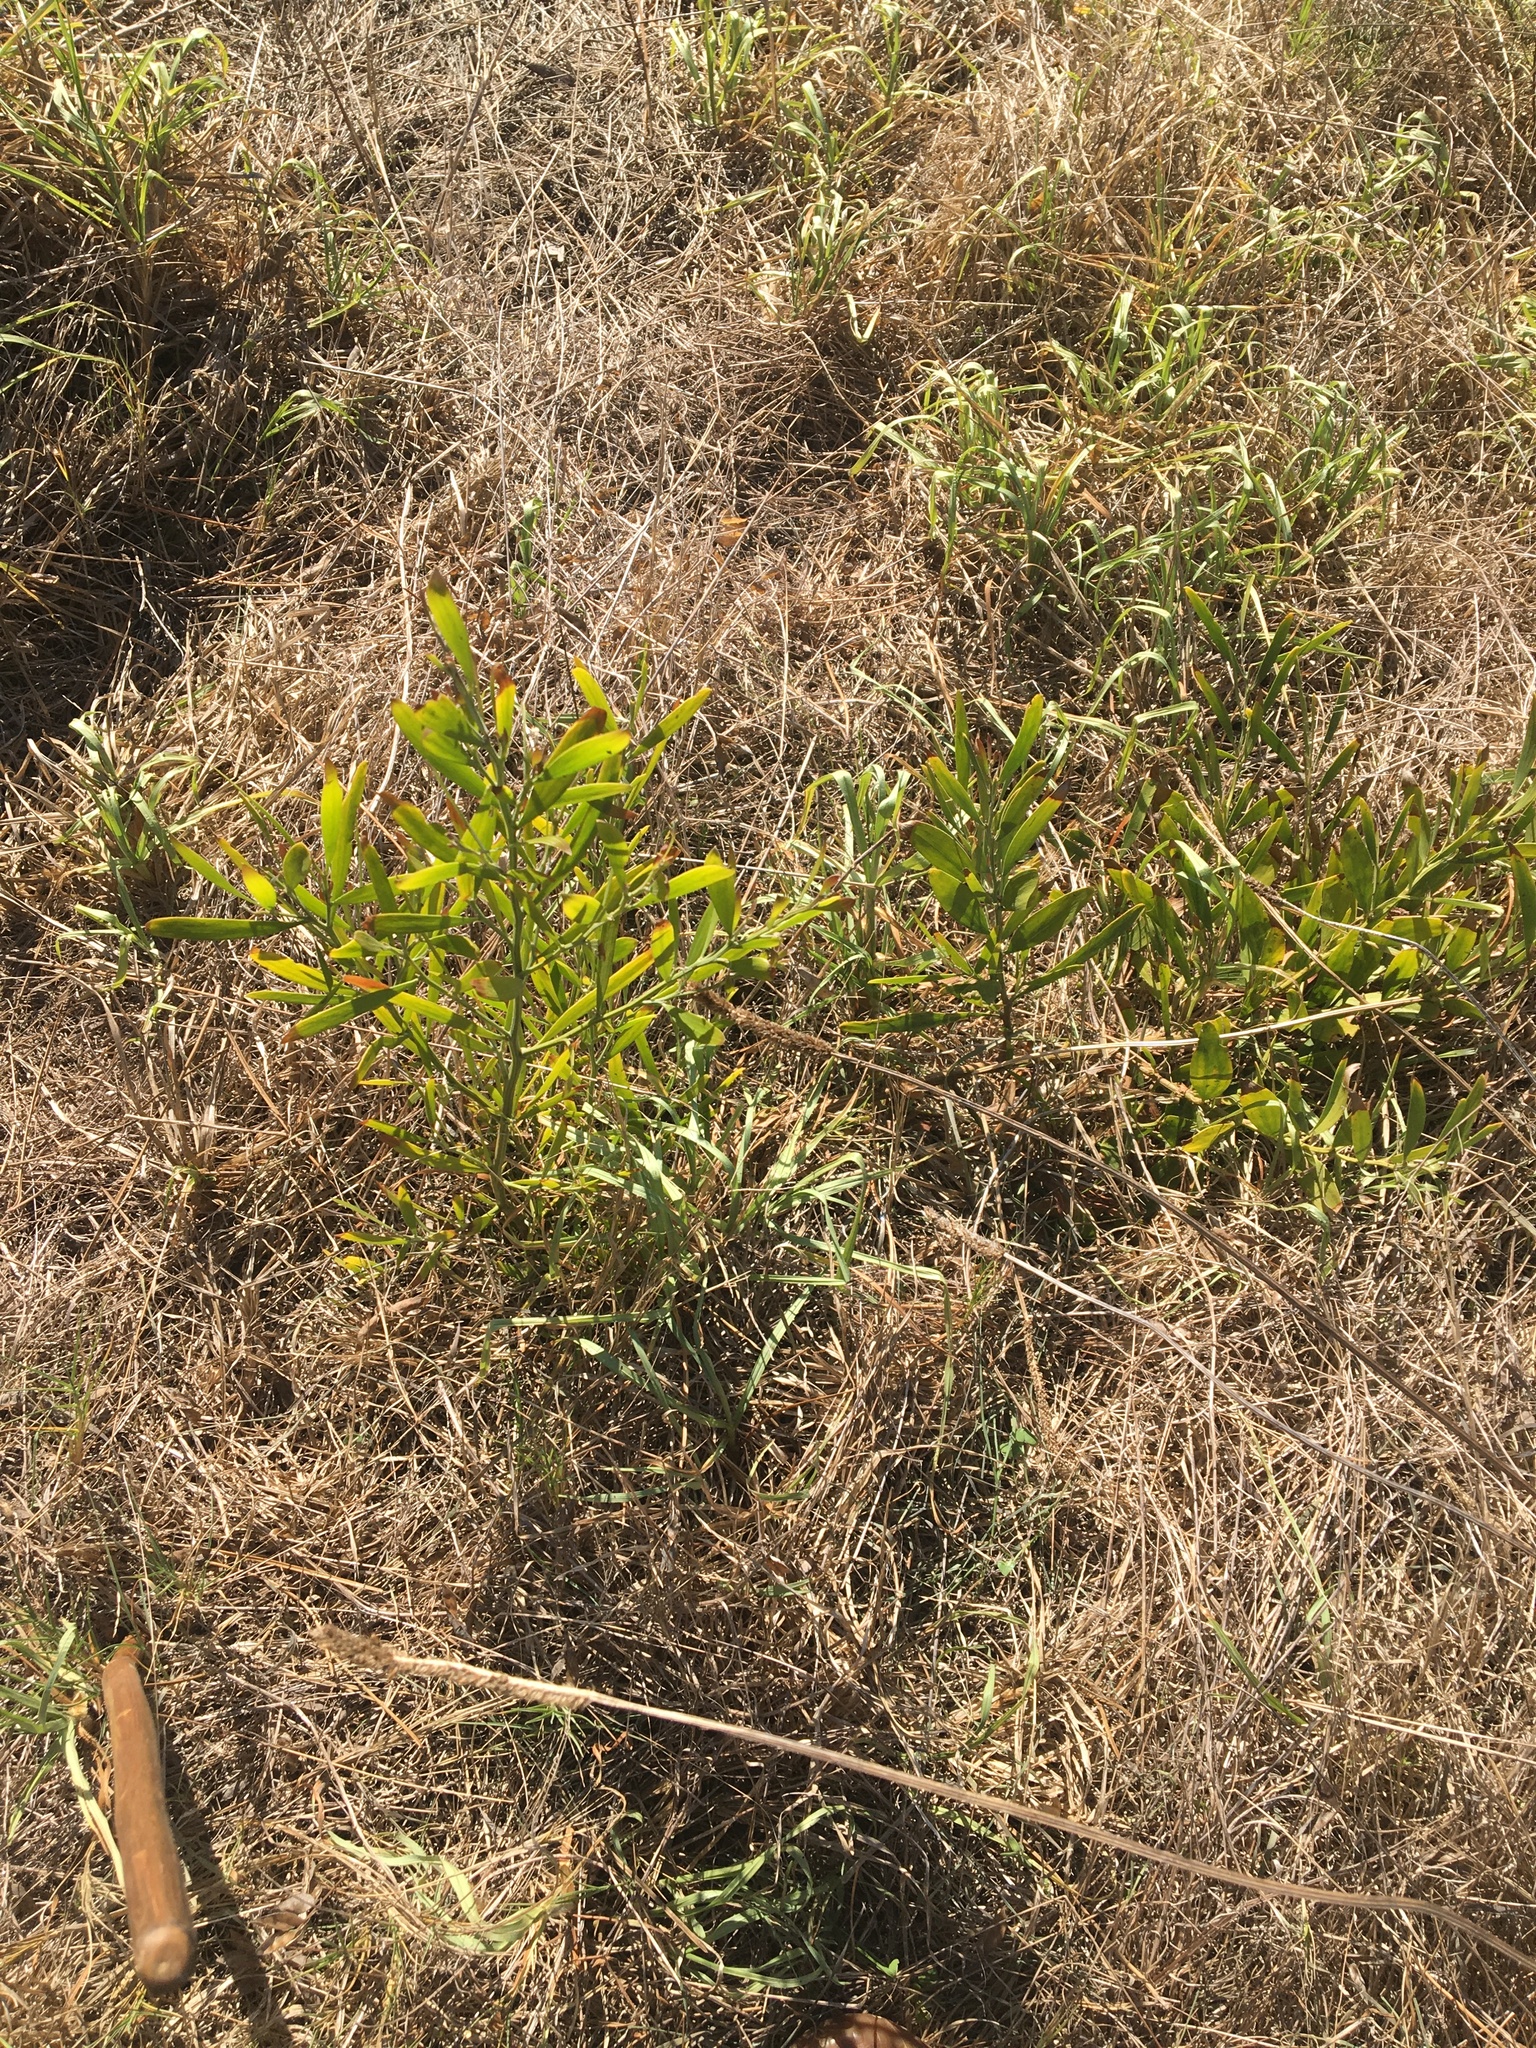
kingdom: Plantae
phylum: Tracheophyta
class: Magnoliopsida
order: Fabales
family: Fabaceae
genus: Acacia
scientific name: Acacia melanoxylon
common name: Blackwood
